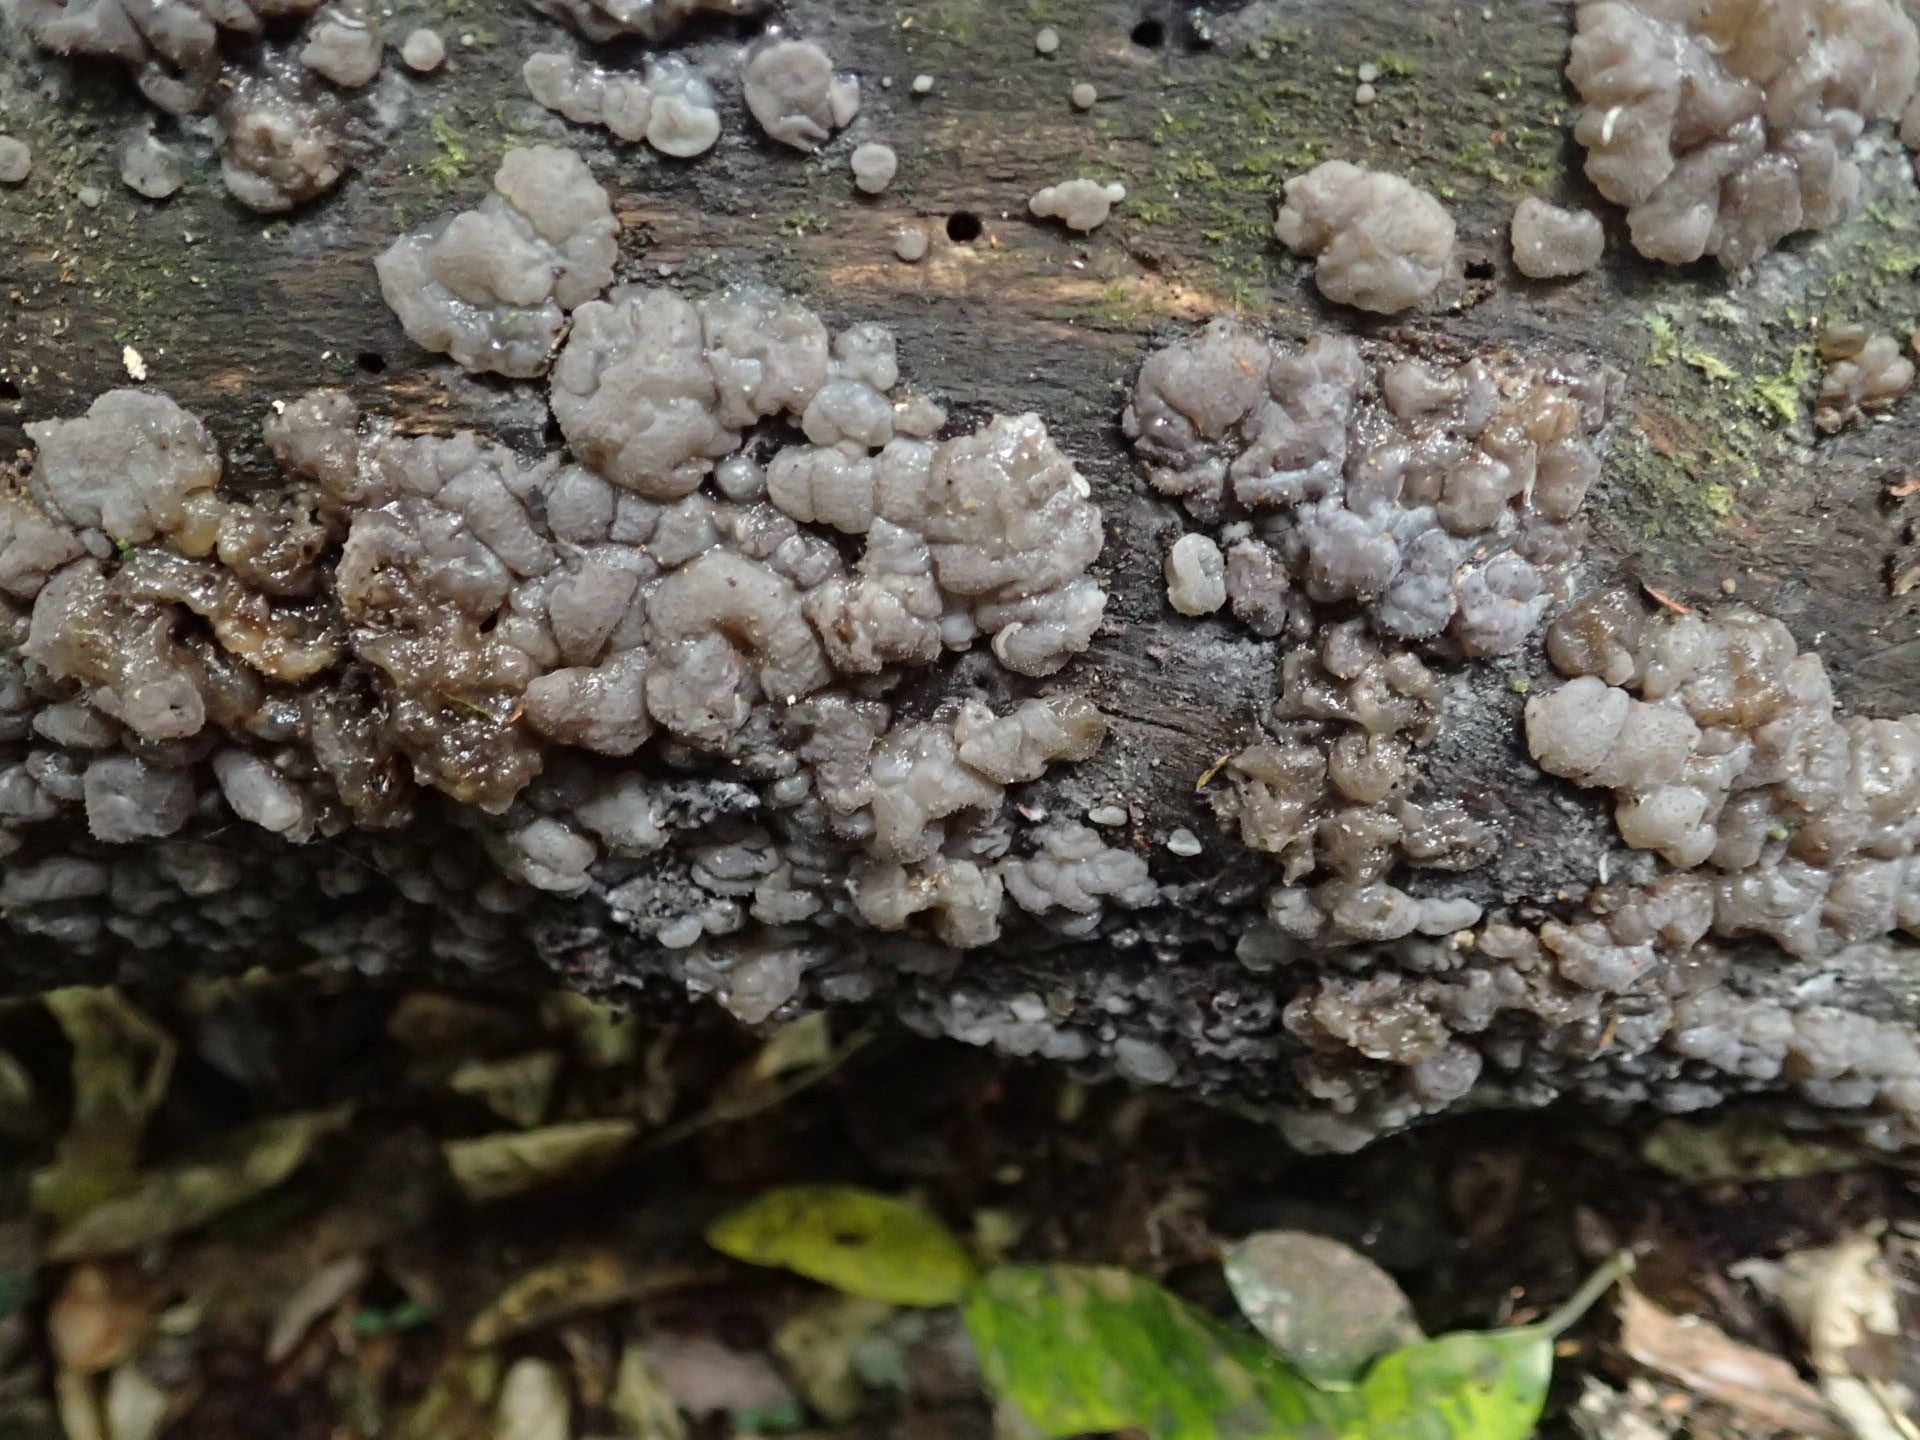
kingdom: Fungi
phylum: Basidiomycota
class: Agaricomycetes
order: Auriculariales
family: Auriculariaceae
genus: Tremellochaete
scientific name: Tremellochaete
